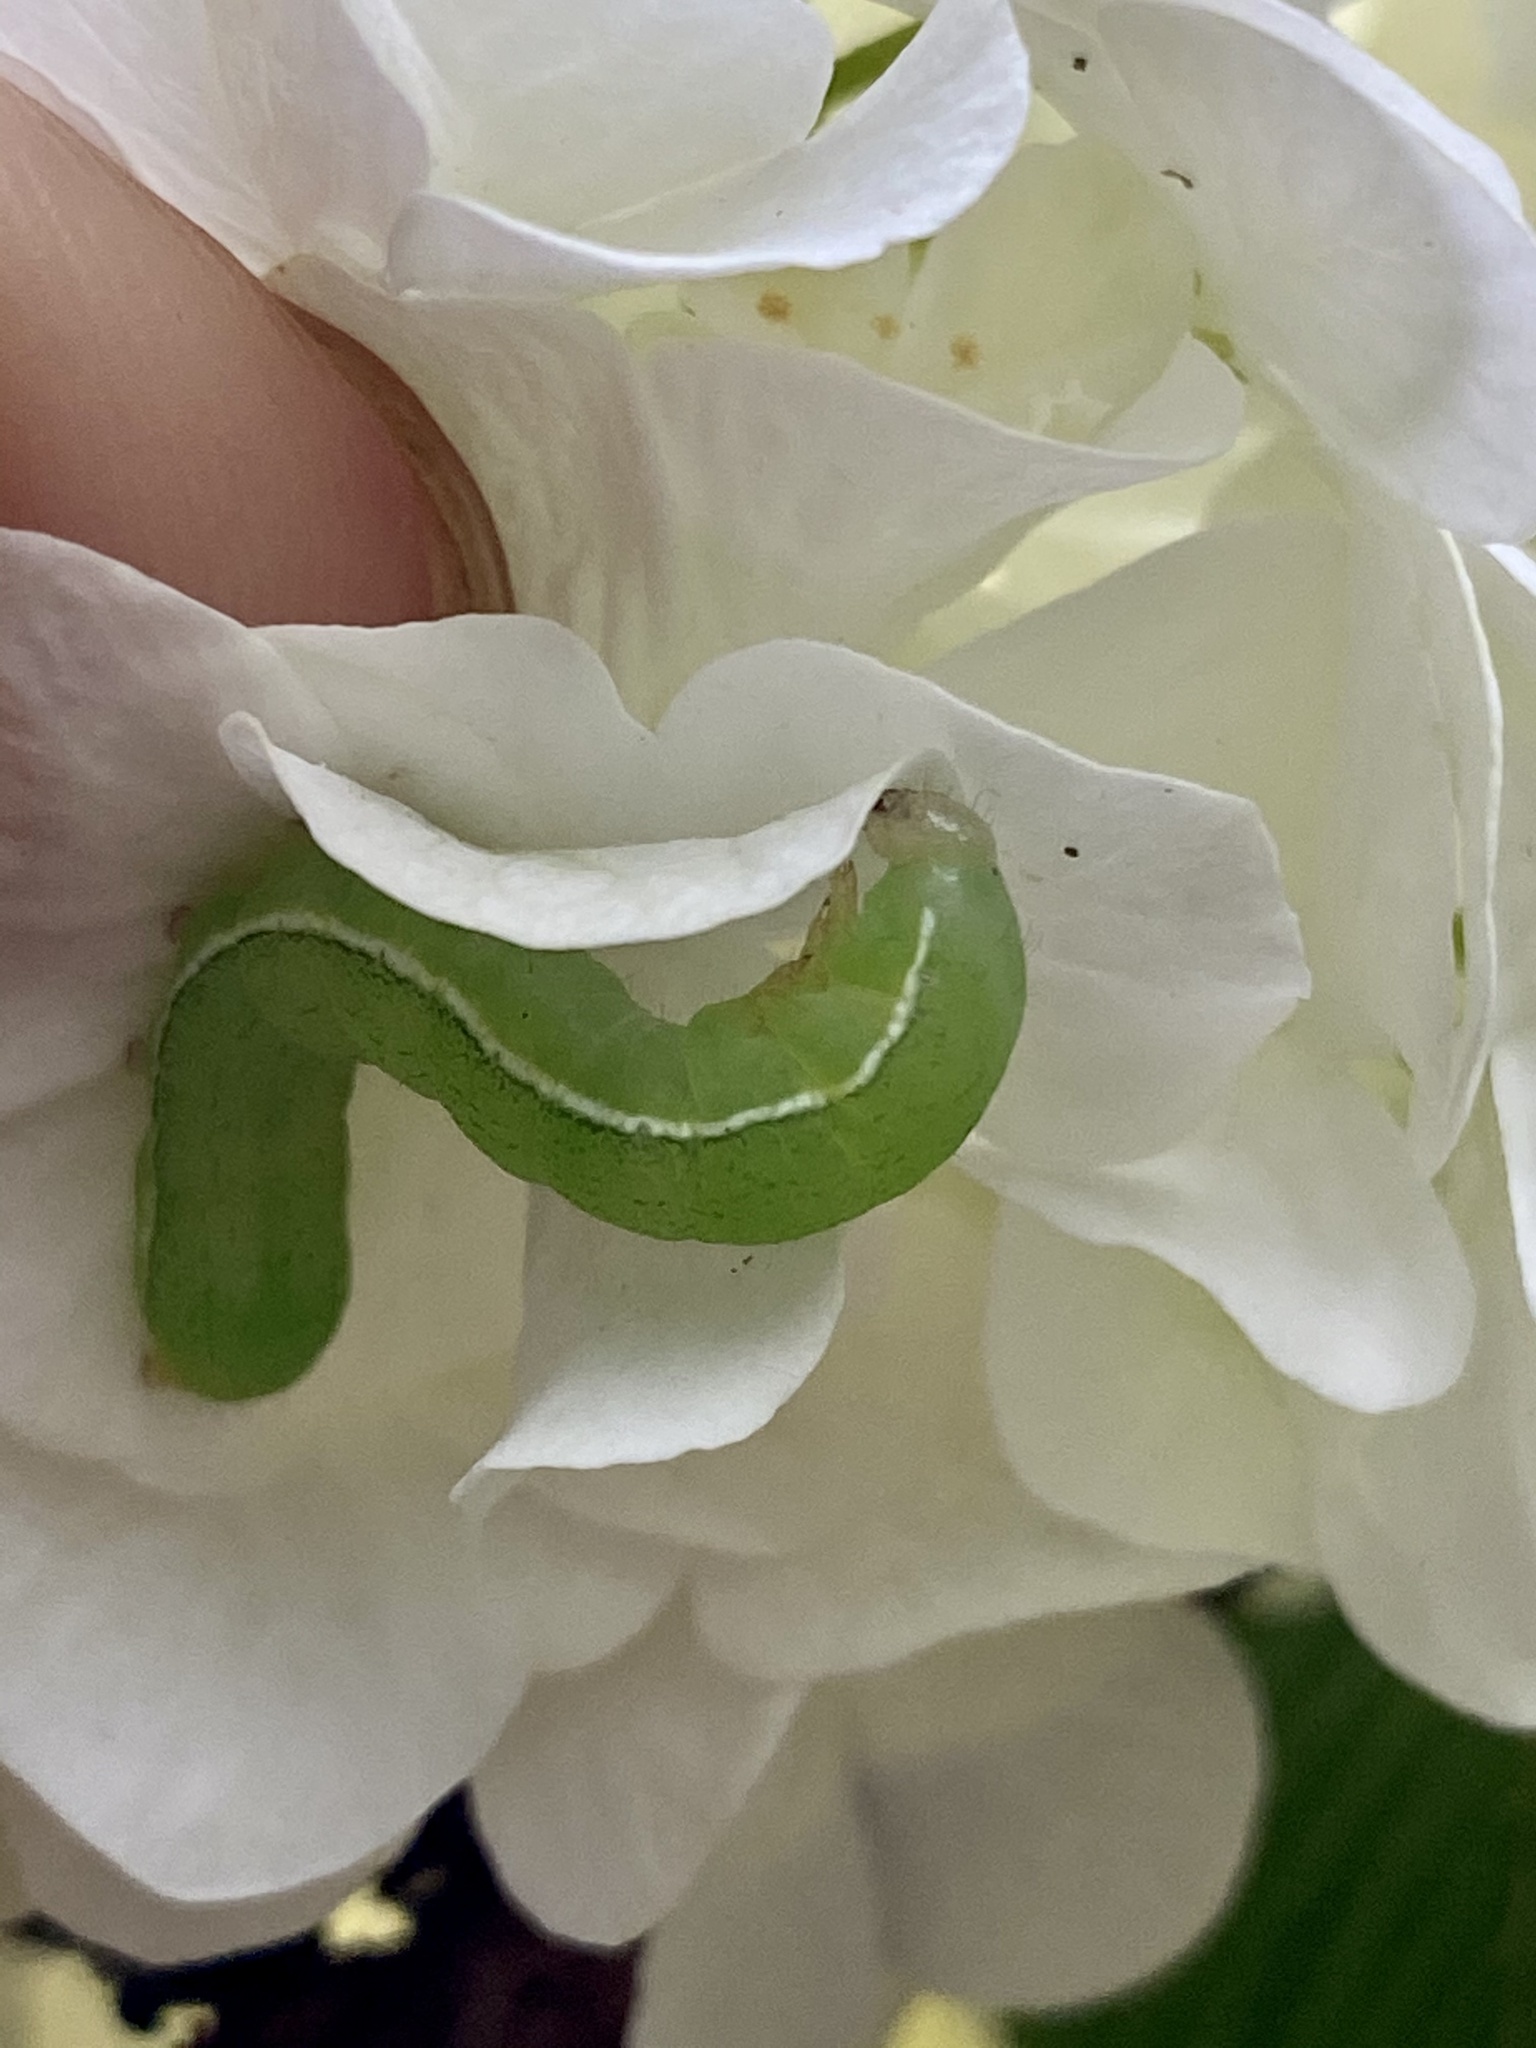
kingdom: Animalia
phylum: Arthropoda
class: Insecta
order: Lepidoptera
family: Noctuidae
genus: Xylena
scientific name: Xylena formosa
